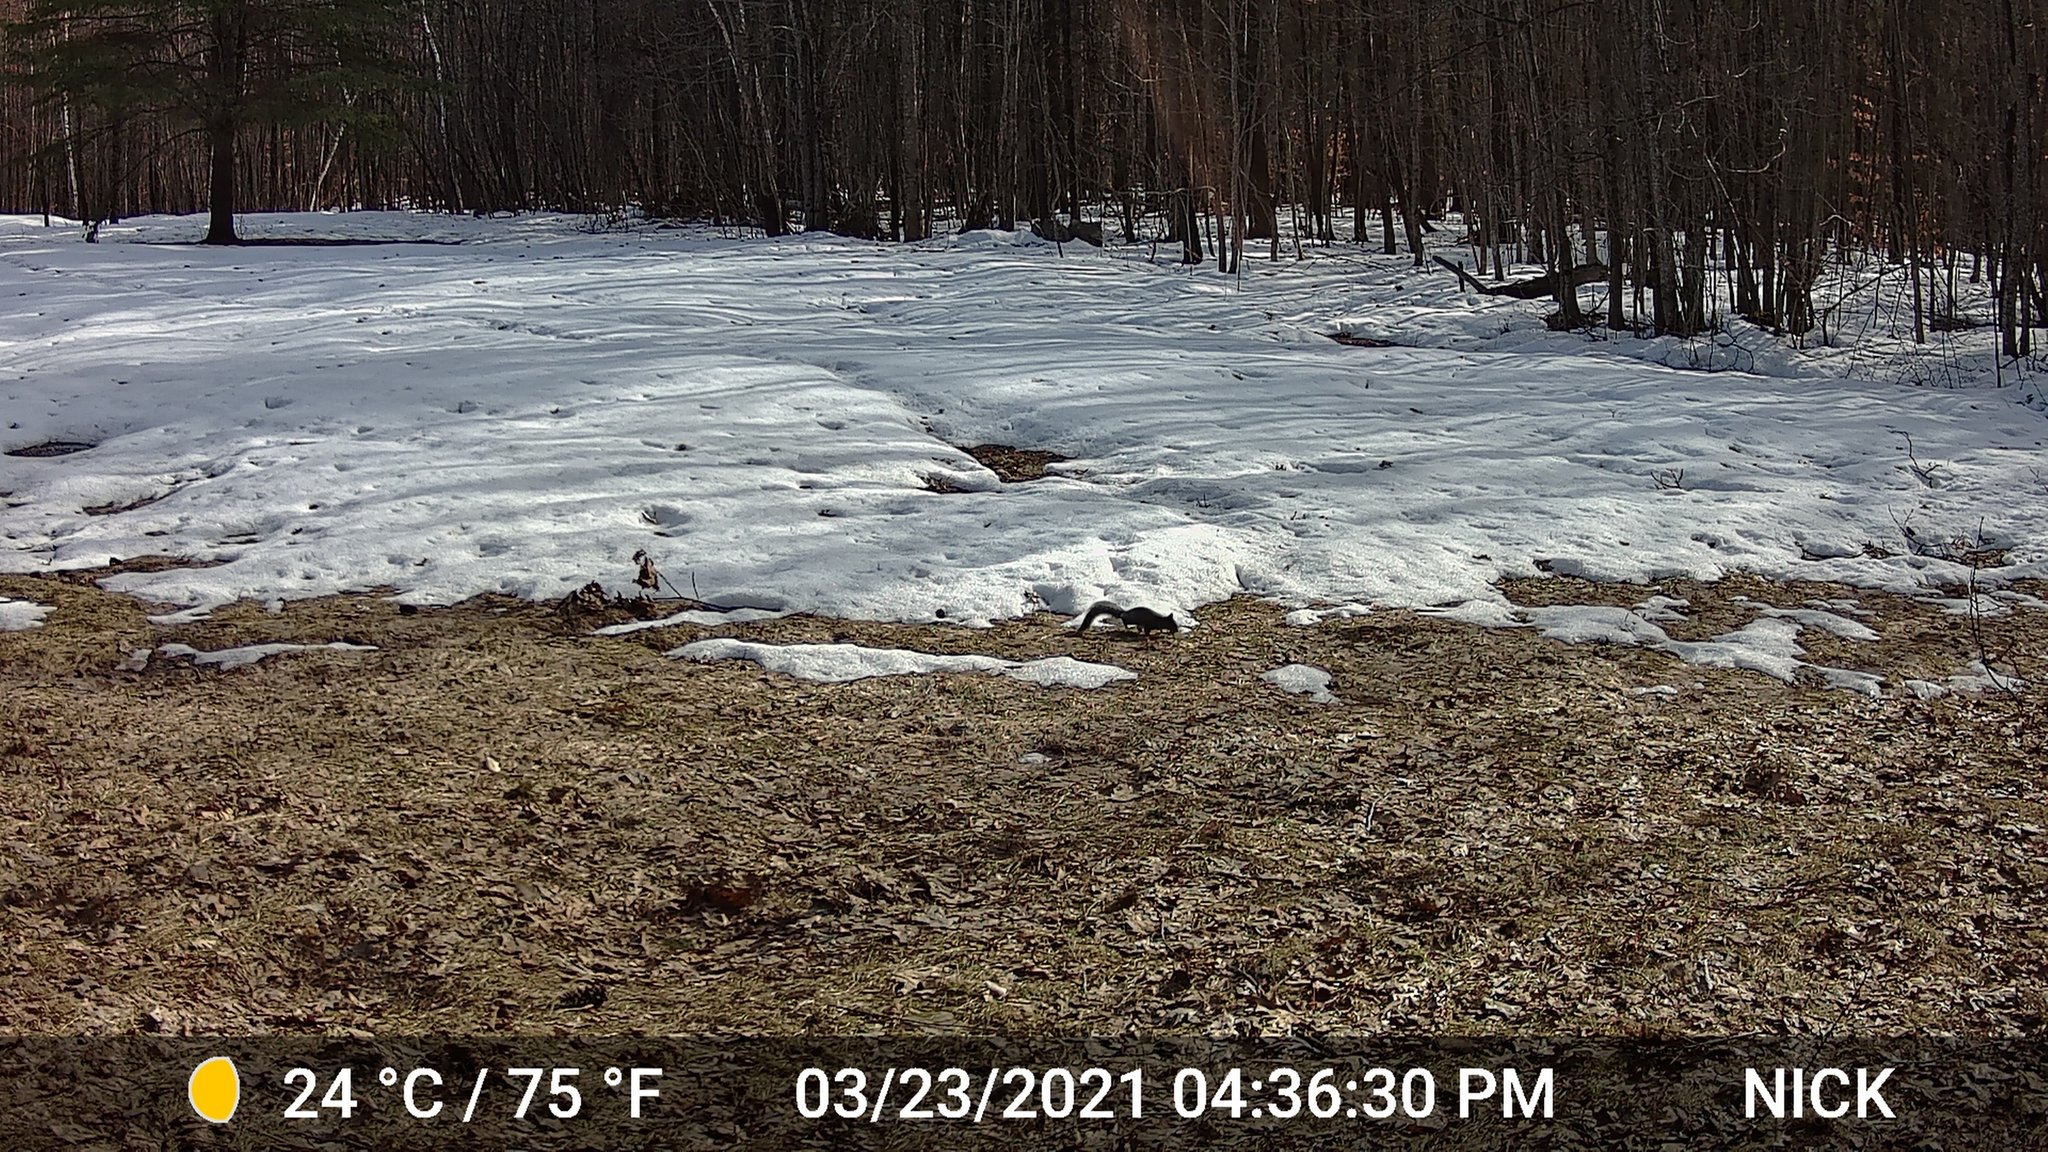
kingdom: Animalia
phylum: Chordata
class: Mammalia
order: Rodentia
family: Sciuridae
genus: Sciurus
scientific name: Sciurus carolinensis
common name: Eastern gray squirrel
